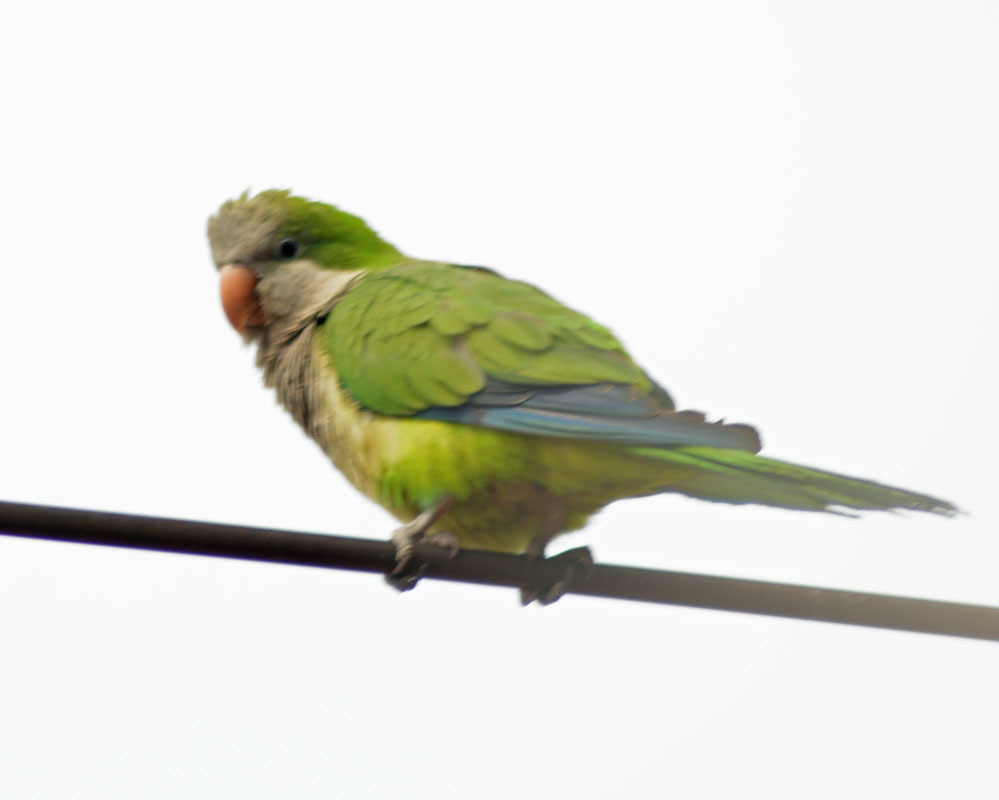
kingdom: Animalia
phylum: Chordata
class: Aves
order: Psittaciformes
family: Psittacidae
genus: Myiopsitta
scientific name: Myiopsitta monachus
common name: Monk parakeet
